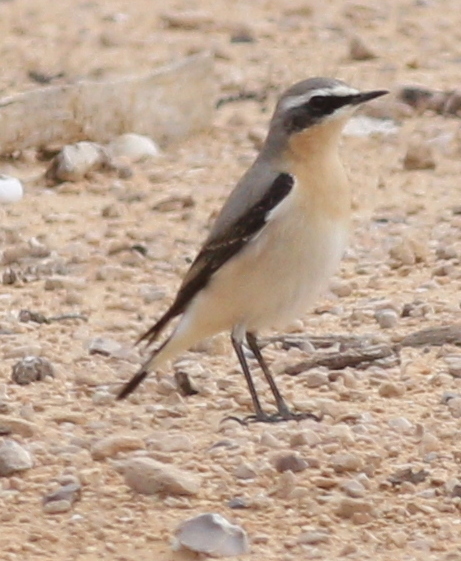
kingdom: Animalia
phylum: Chordata
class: Aves
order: Passeriformes
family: Muscicapidae
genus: Oenanthe
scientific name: Oenanthe oenanthe
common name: Northern wheatear
